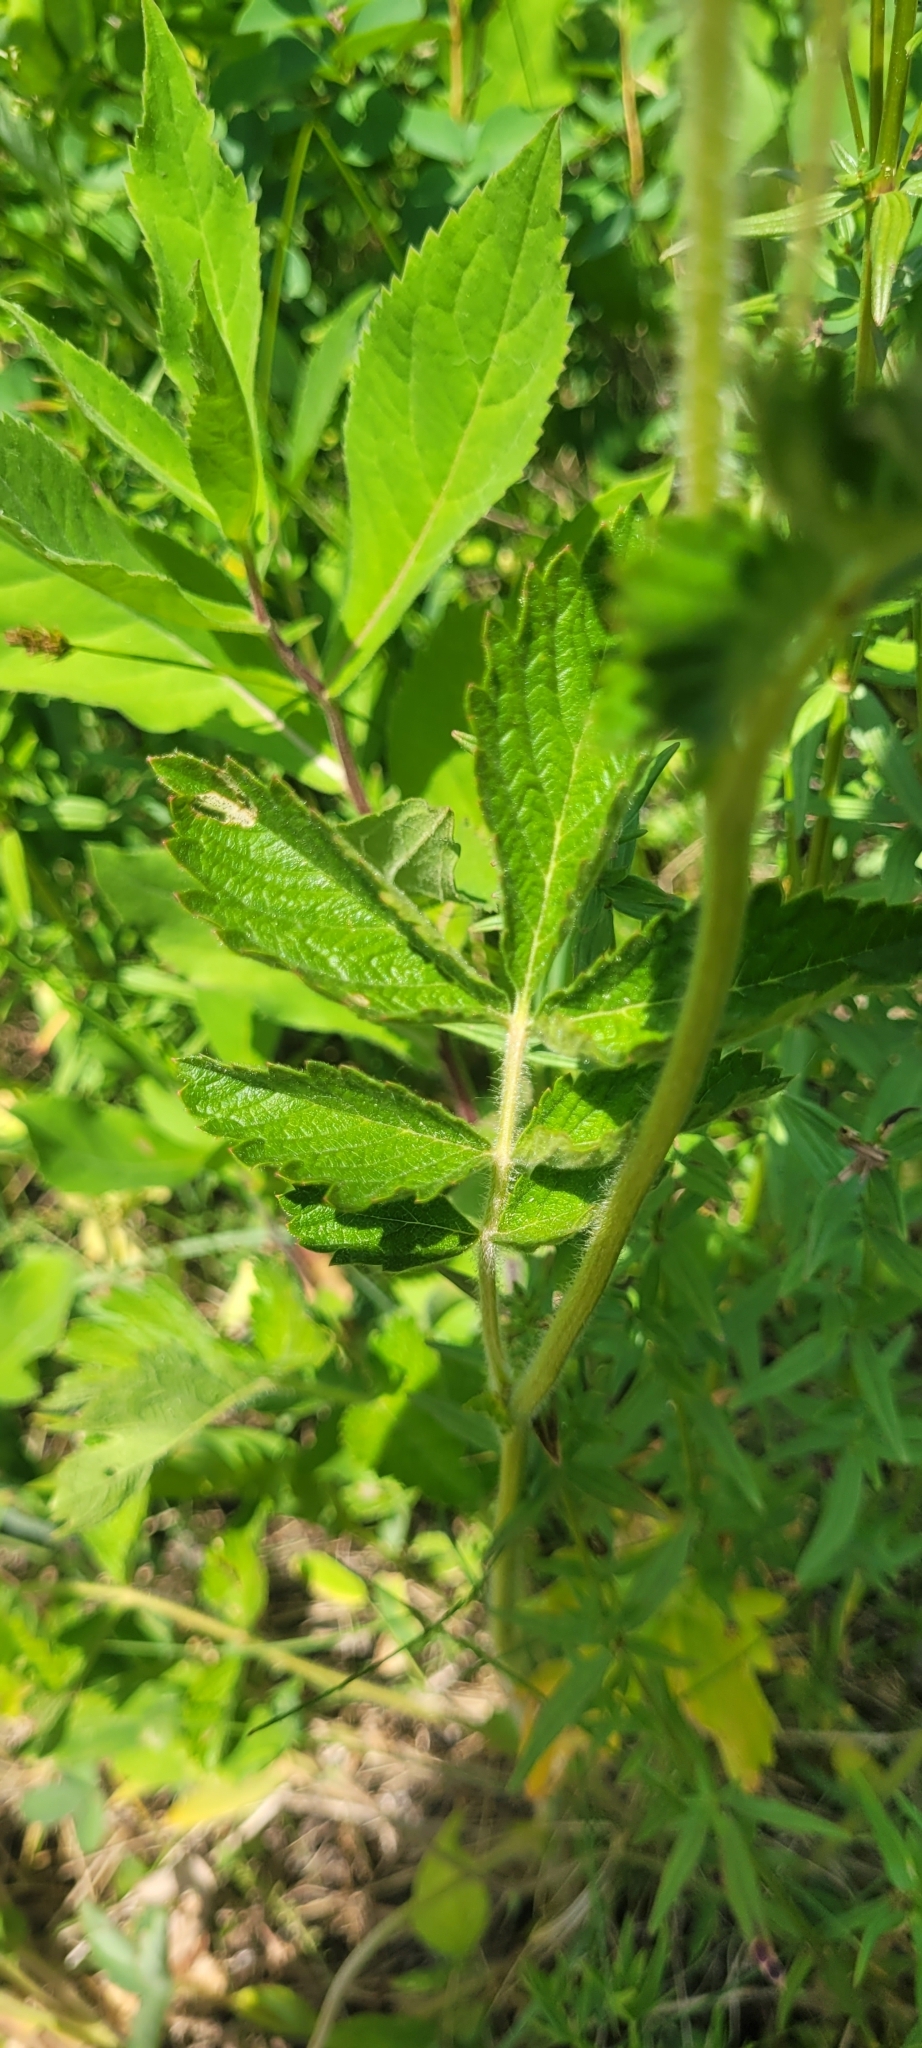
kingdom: Plantae
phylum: Tracheophyta
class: Magnoliopsida
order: Rosales
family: Rosaceae
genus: Drymocallis
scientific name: Drymocallis convallaria
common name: Cream cinquefoil
